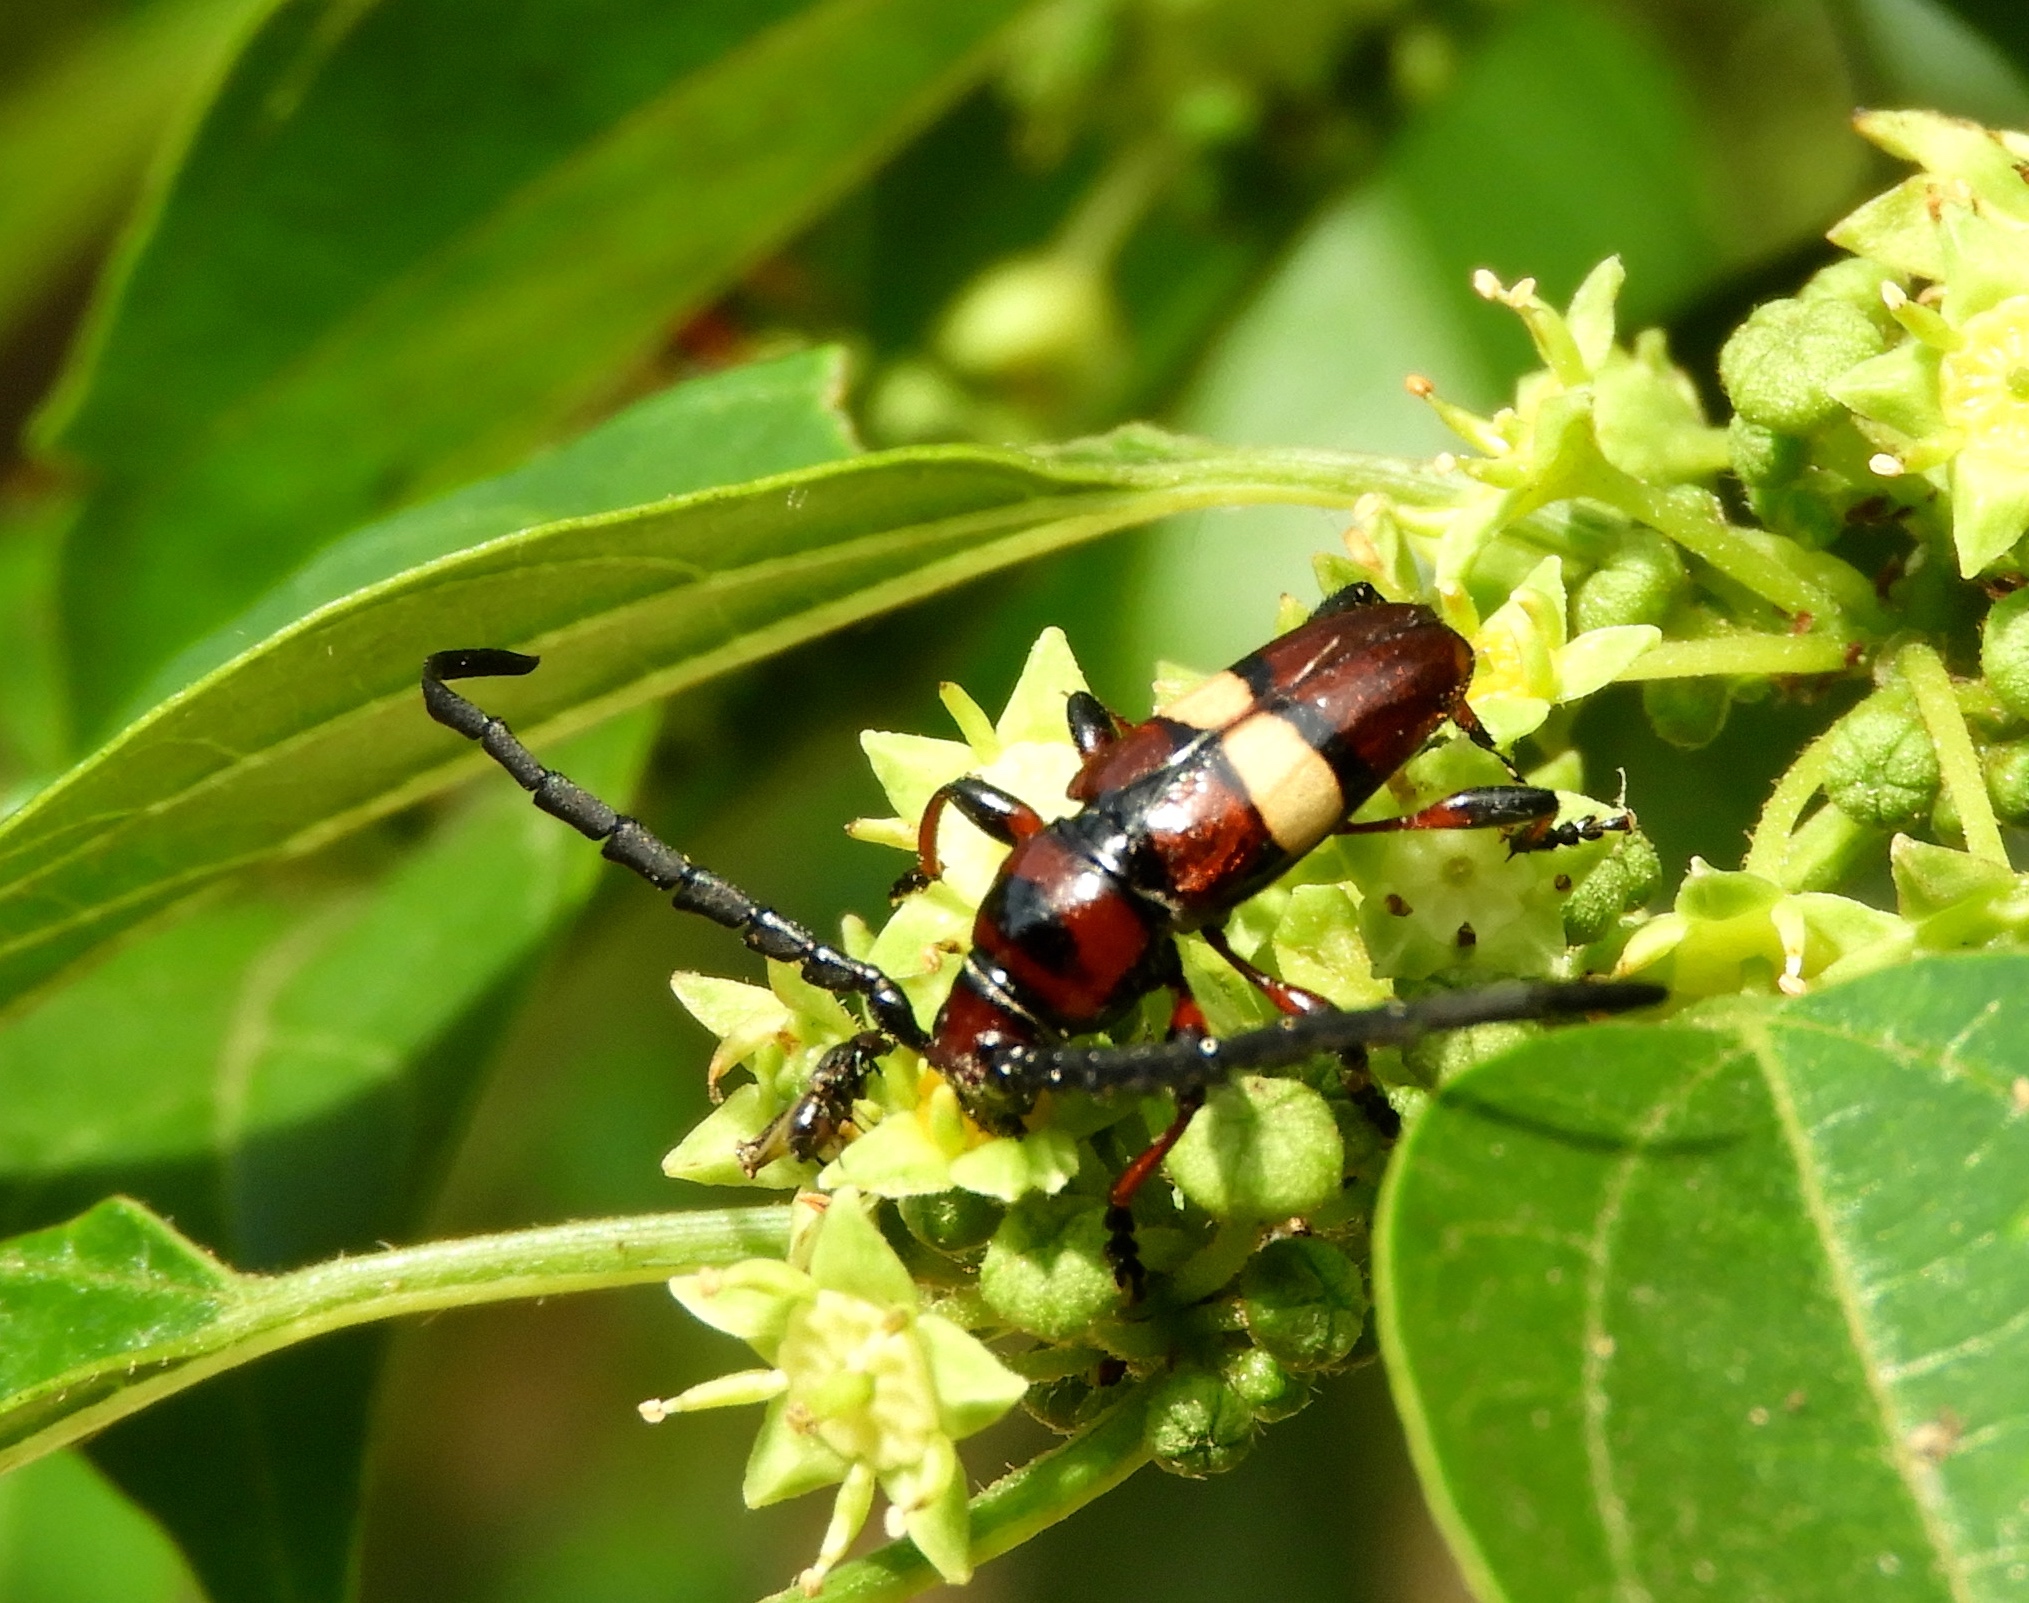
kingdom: Animalia
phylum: Arthropoda
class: Insecta
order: Coleoptera
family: Cerambycidae
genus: Lissonotus
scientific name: Lissonotus flavocinctus
